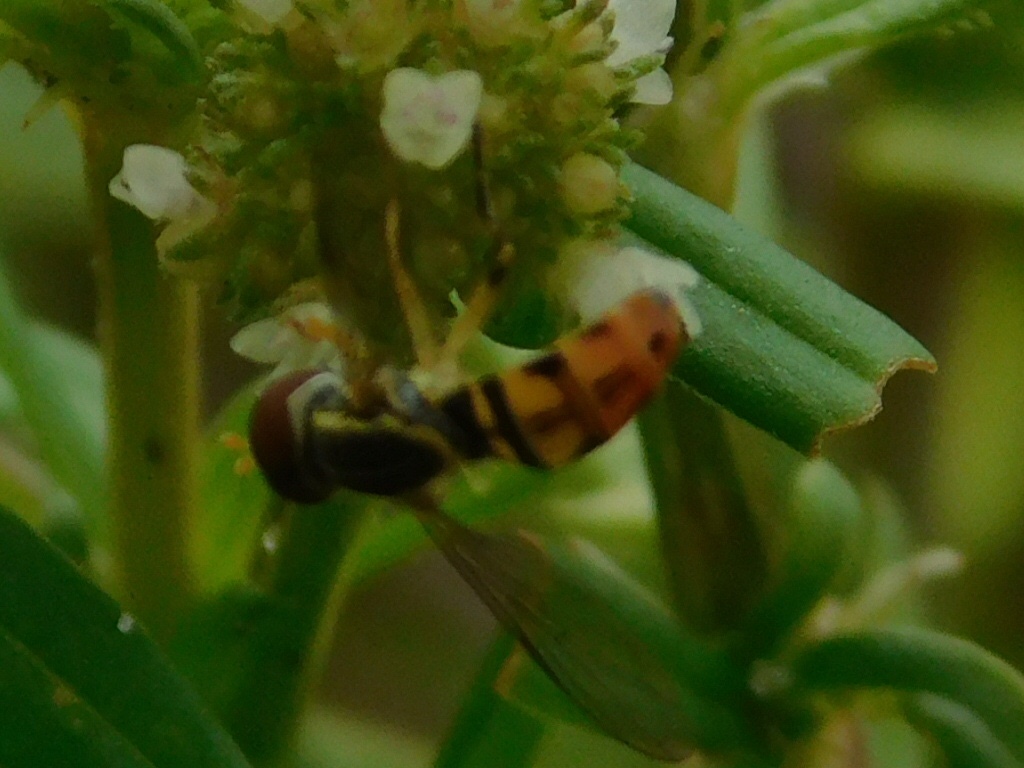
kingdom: Animalia
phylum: Arthropoda
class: Insecta
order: Diptera
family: Syrphidae
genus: Toxomerus
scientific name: Toxomerus floralis
